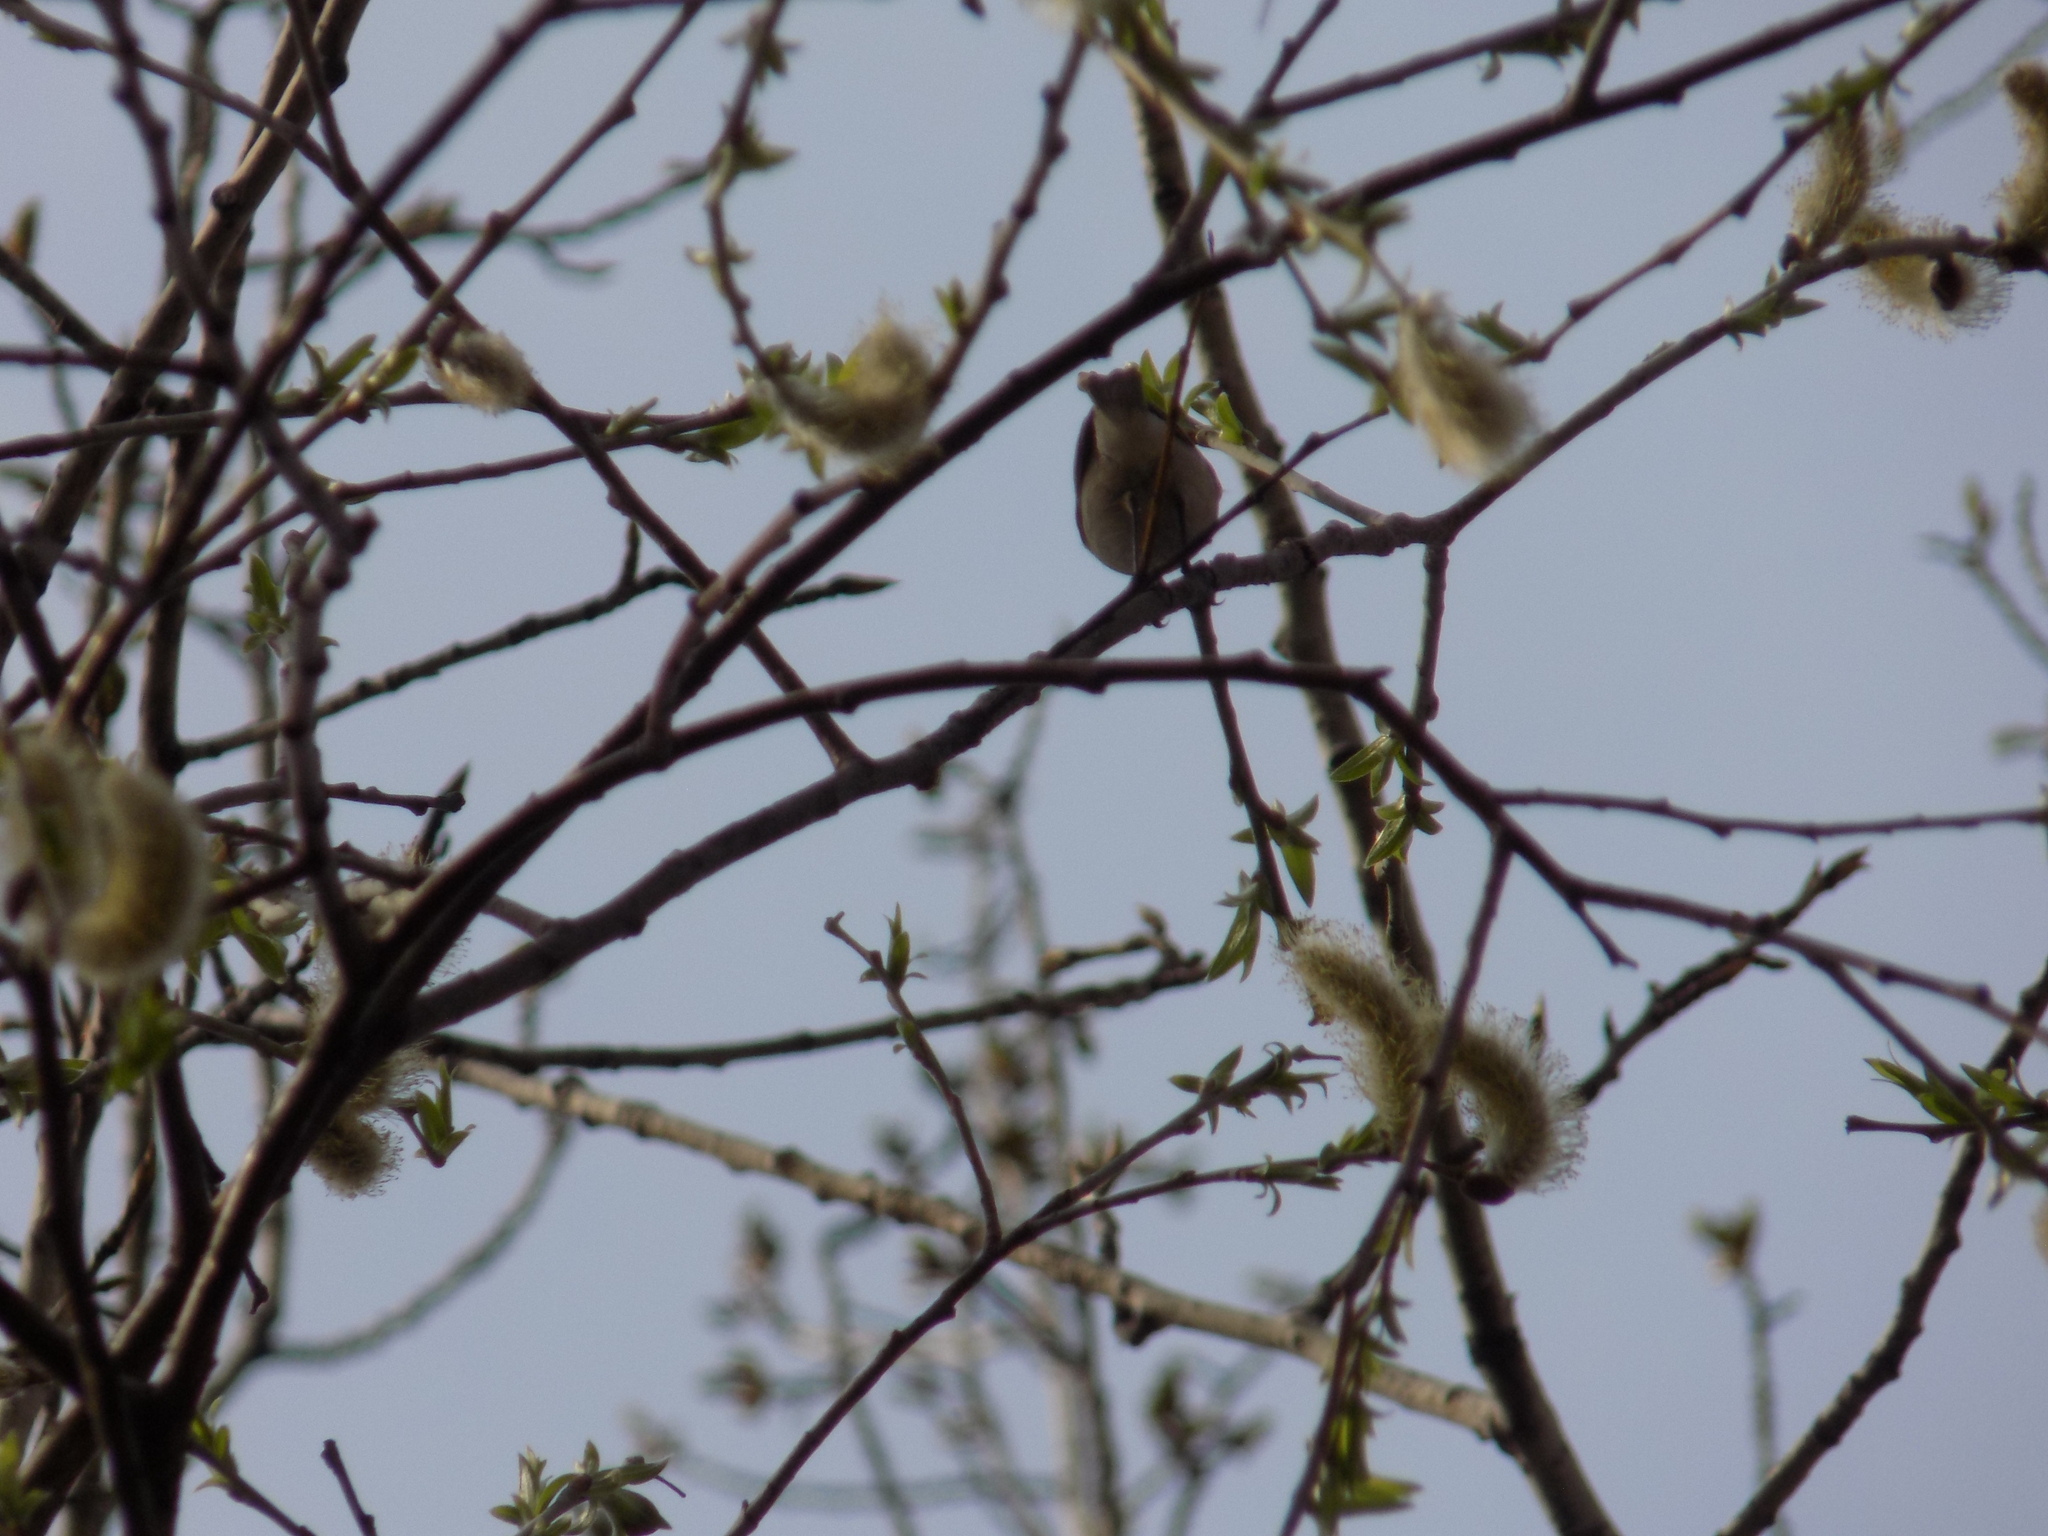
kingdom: Animalia
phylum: Chordata
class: Aves
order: Passeriformes
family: Phylloscopidae
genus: Phylloscopus
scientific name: Phylloscopus collybita
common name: Common chiffchaff
